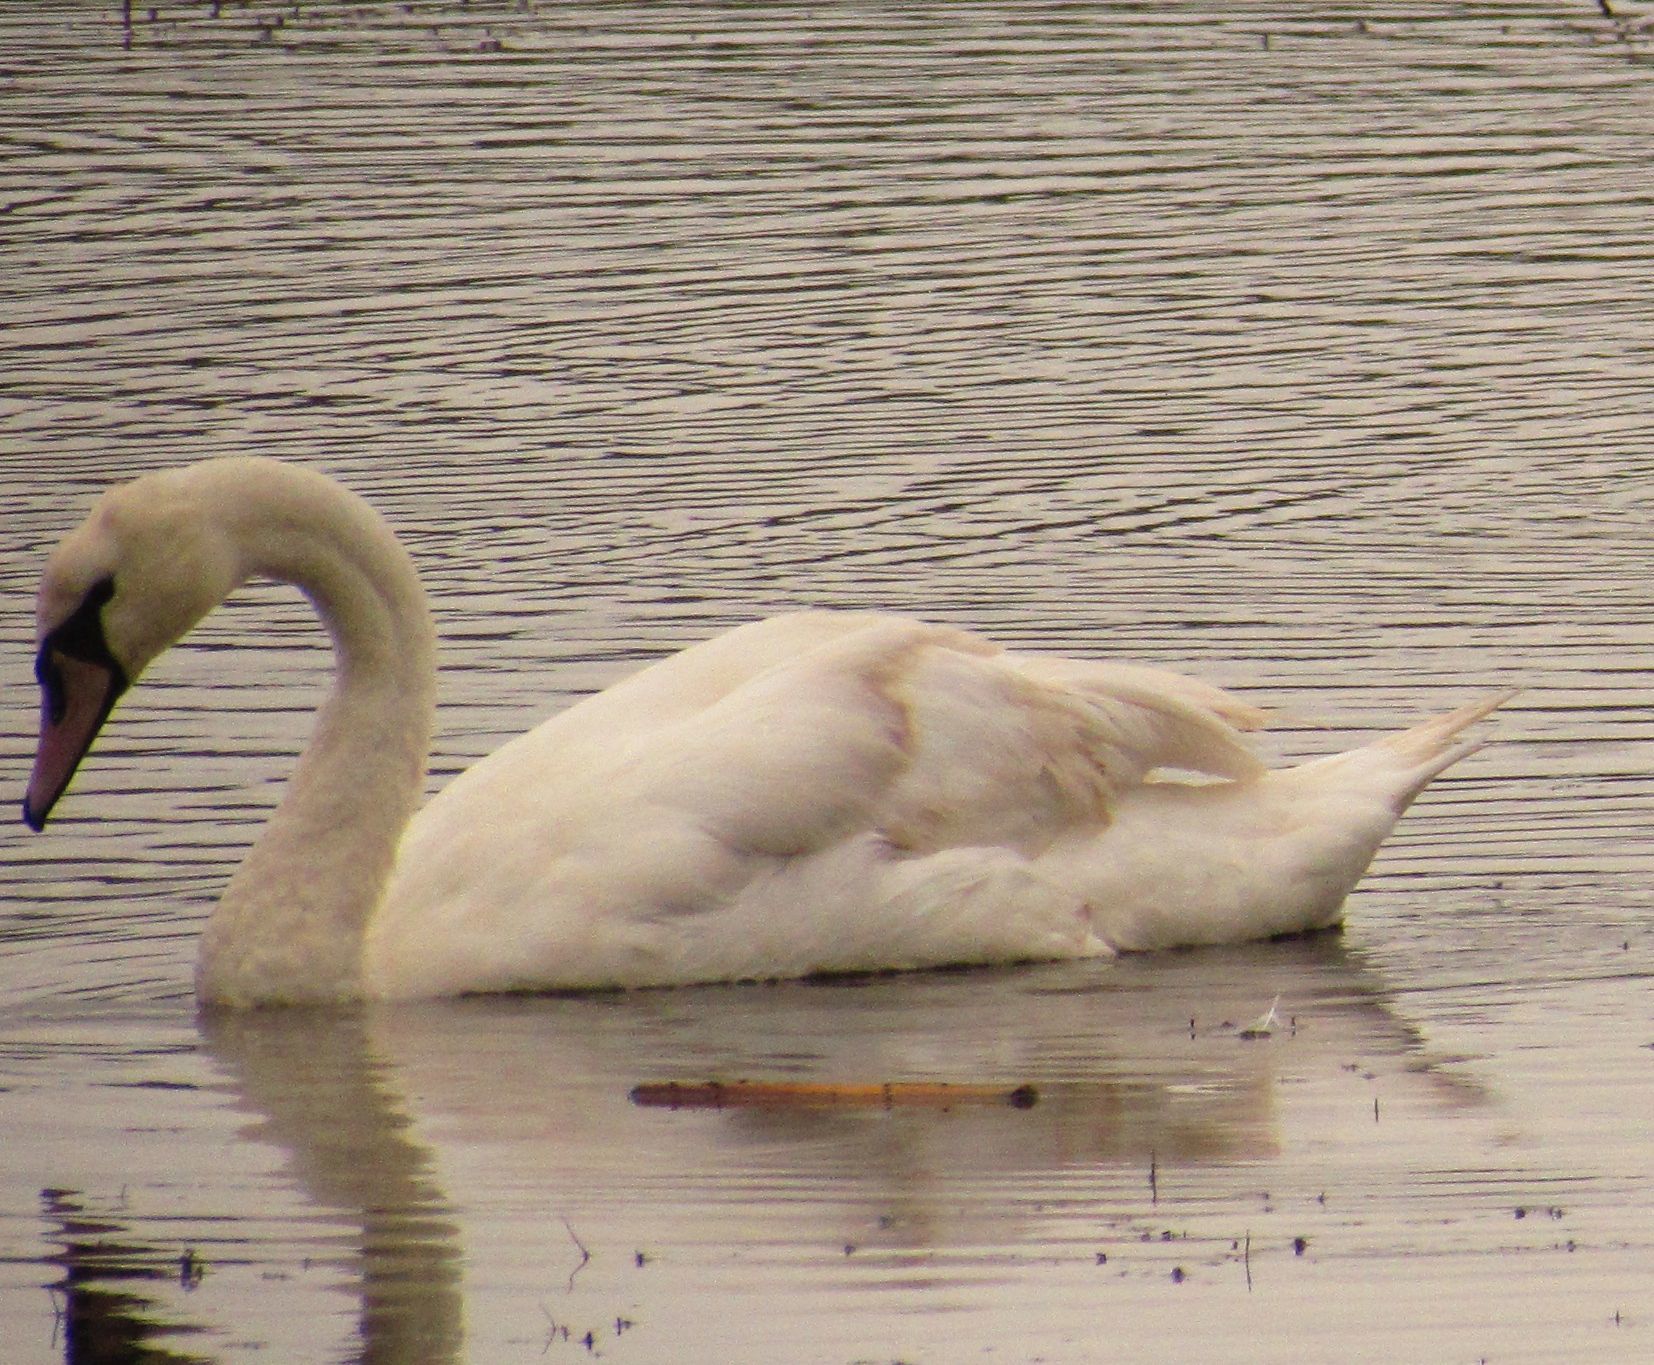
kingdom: Animalia
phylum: Chordata
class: Aves
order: Anseriformes
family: Anatidae
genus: Cygnus
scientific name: Cygnus olor
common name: Mute swan
